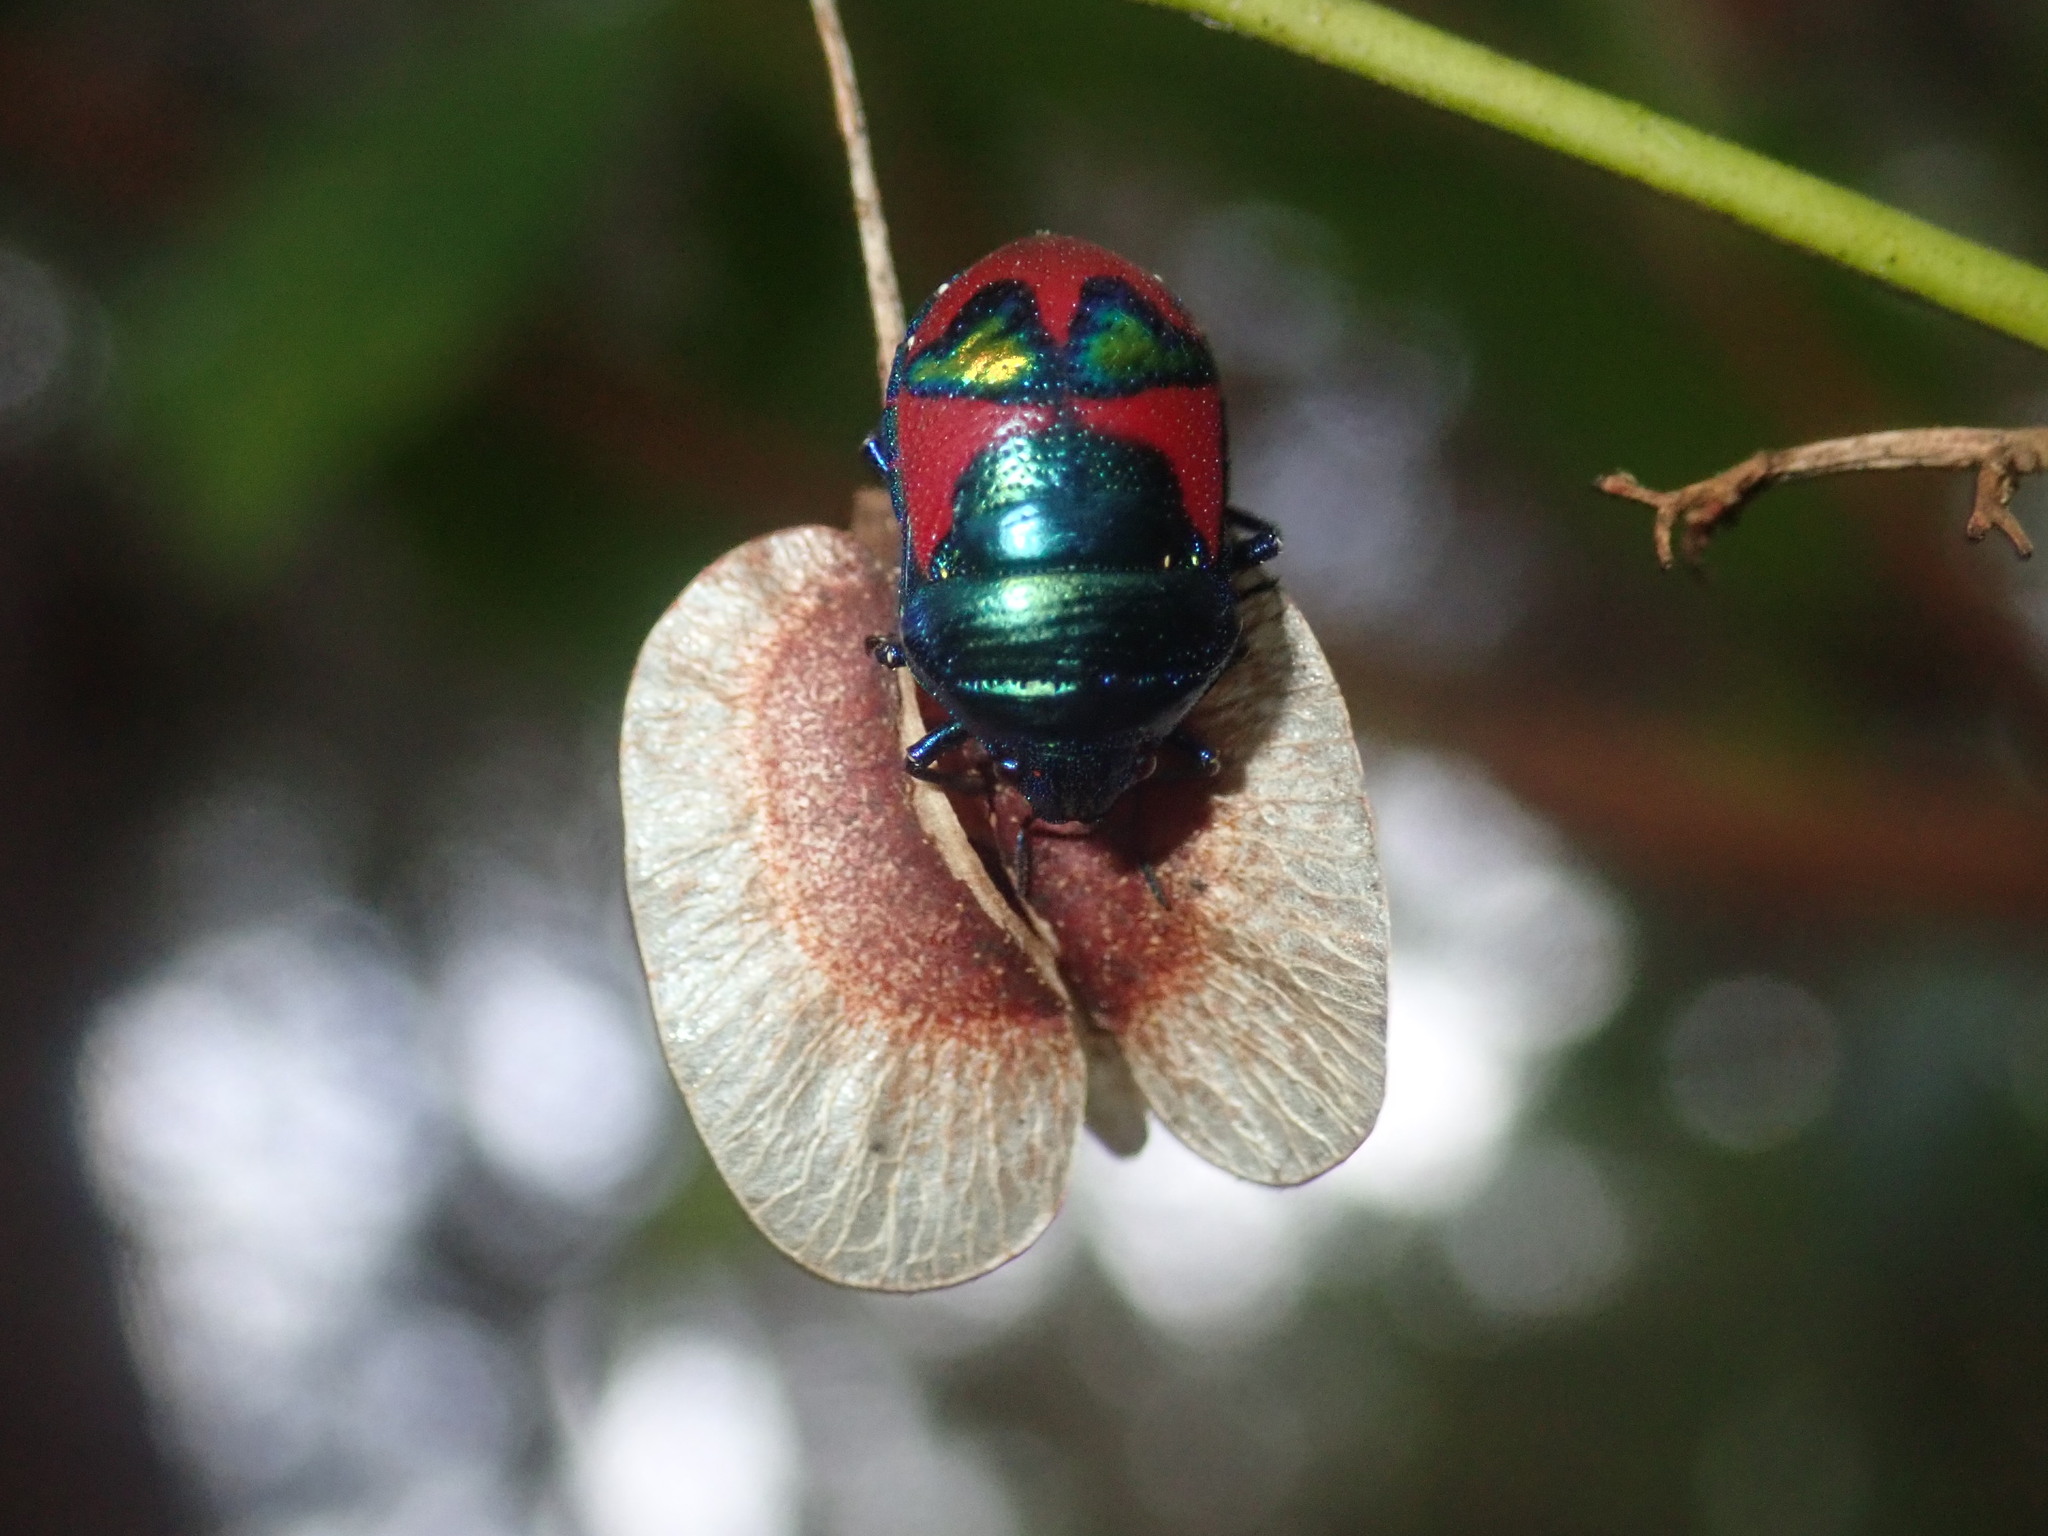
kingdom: Animalia
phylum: Arthropoda
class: Insecta
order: Hemiptera
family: Scutelleridae
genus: Choerocoris
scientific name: Choerocoris paganus
